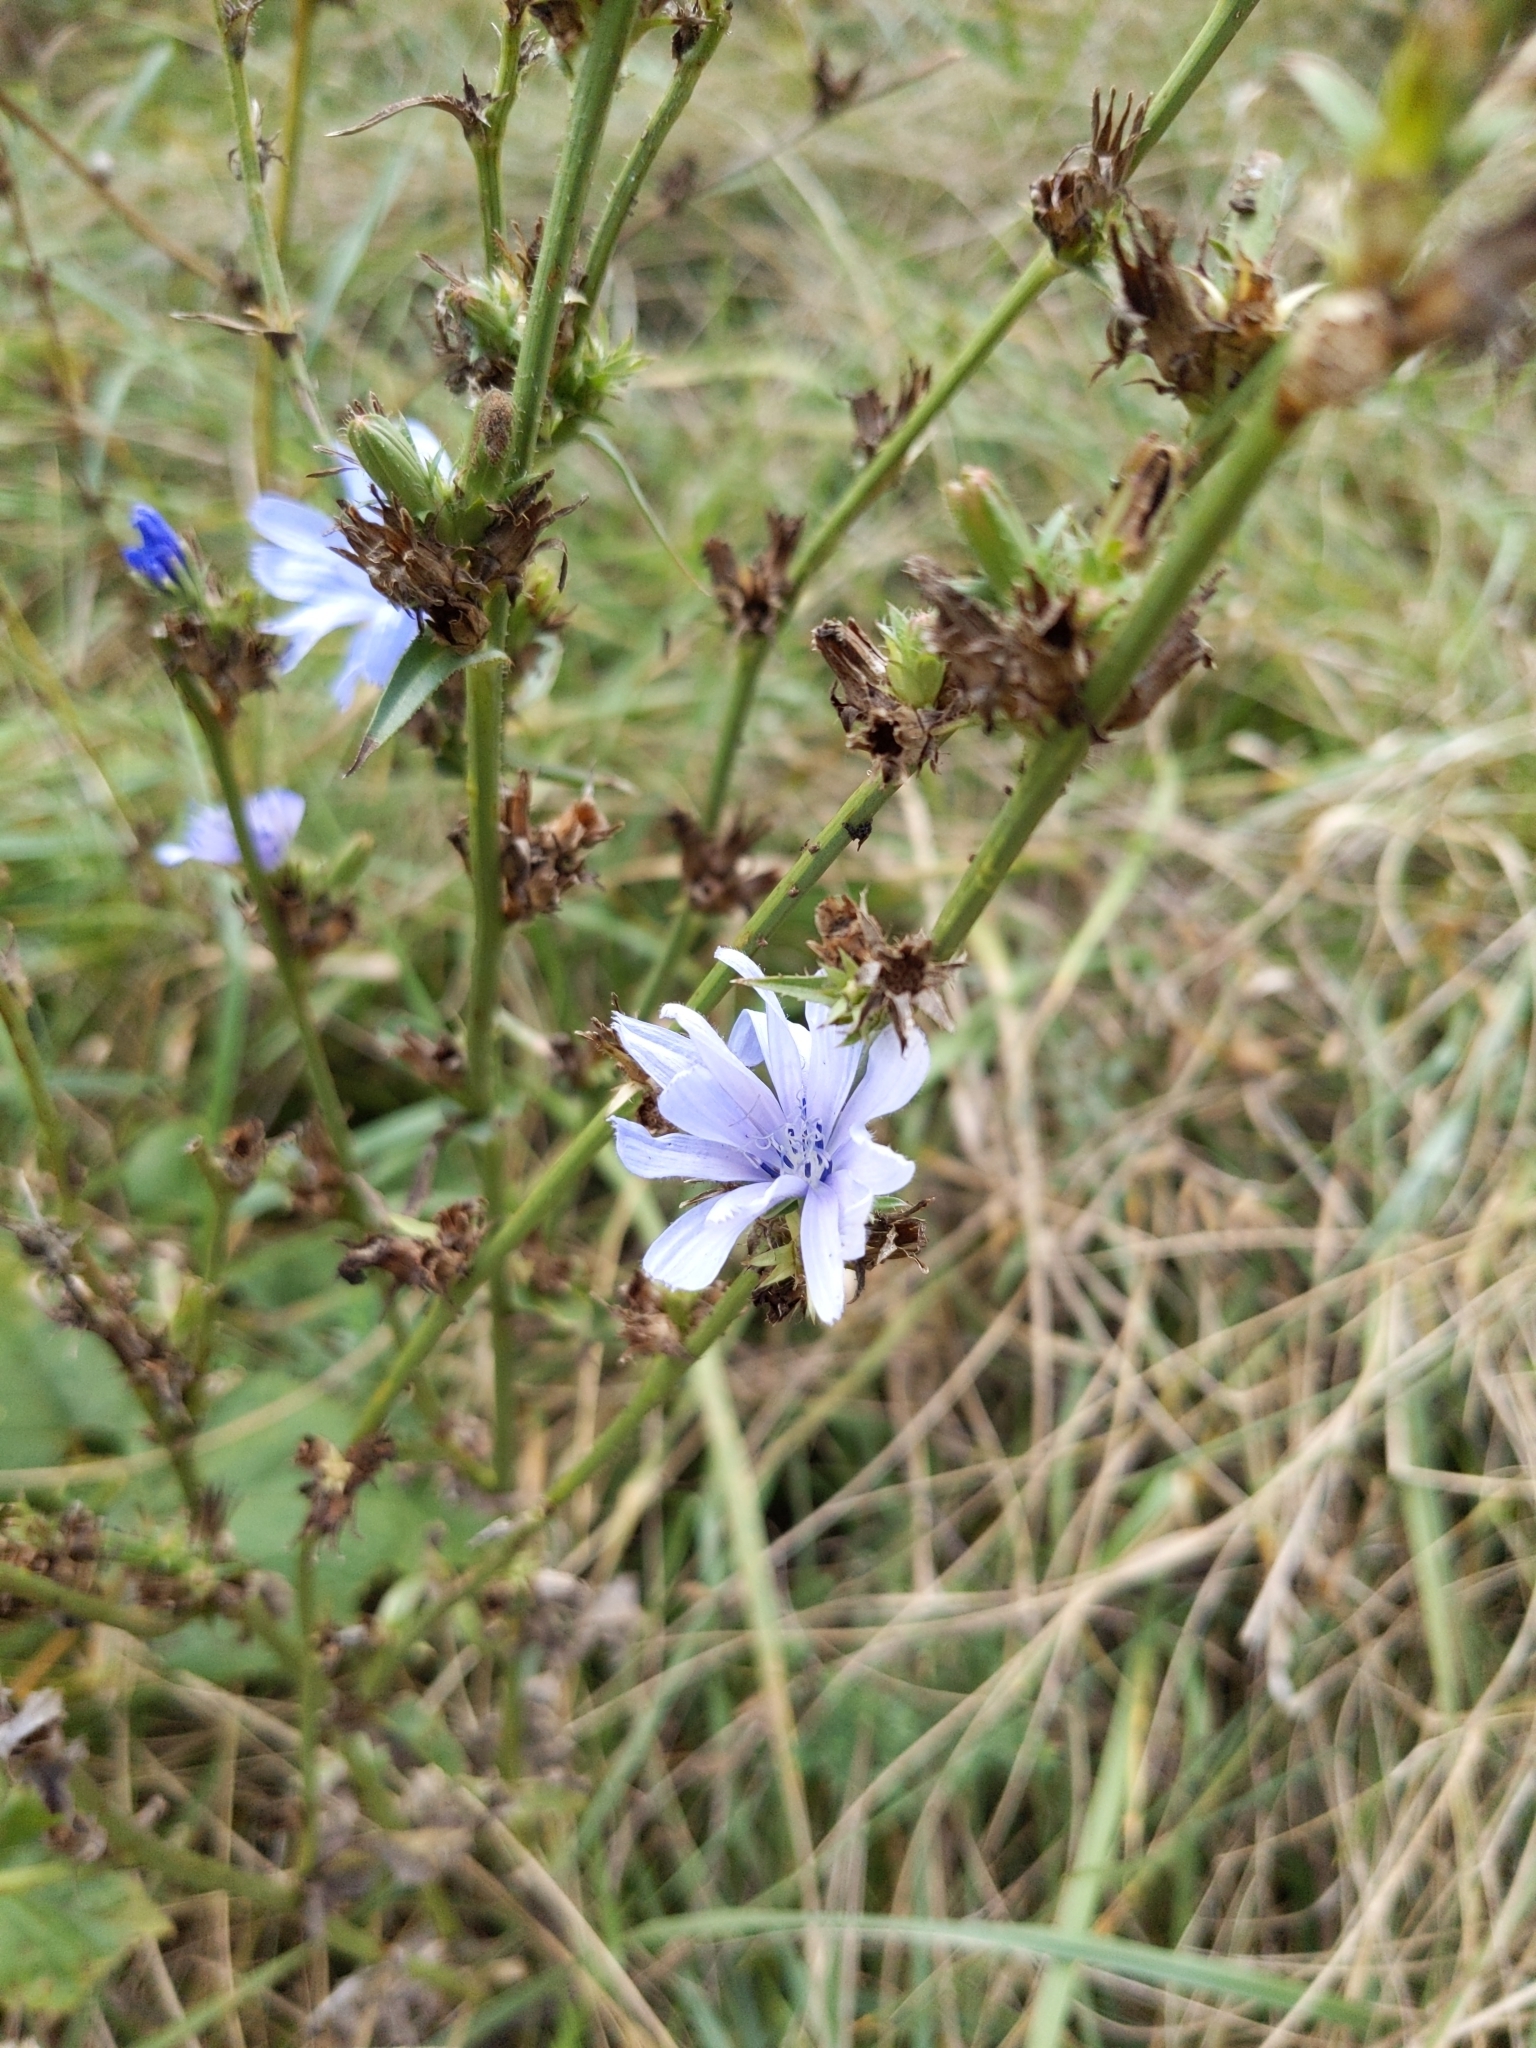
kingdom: Plantae
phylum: Tracheophyta
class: Magnoliopsida
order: Asterales
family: Asteraceae
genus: Cichorium
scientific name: Cichorium intybus
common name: Chicory
